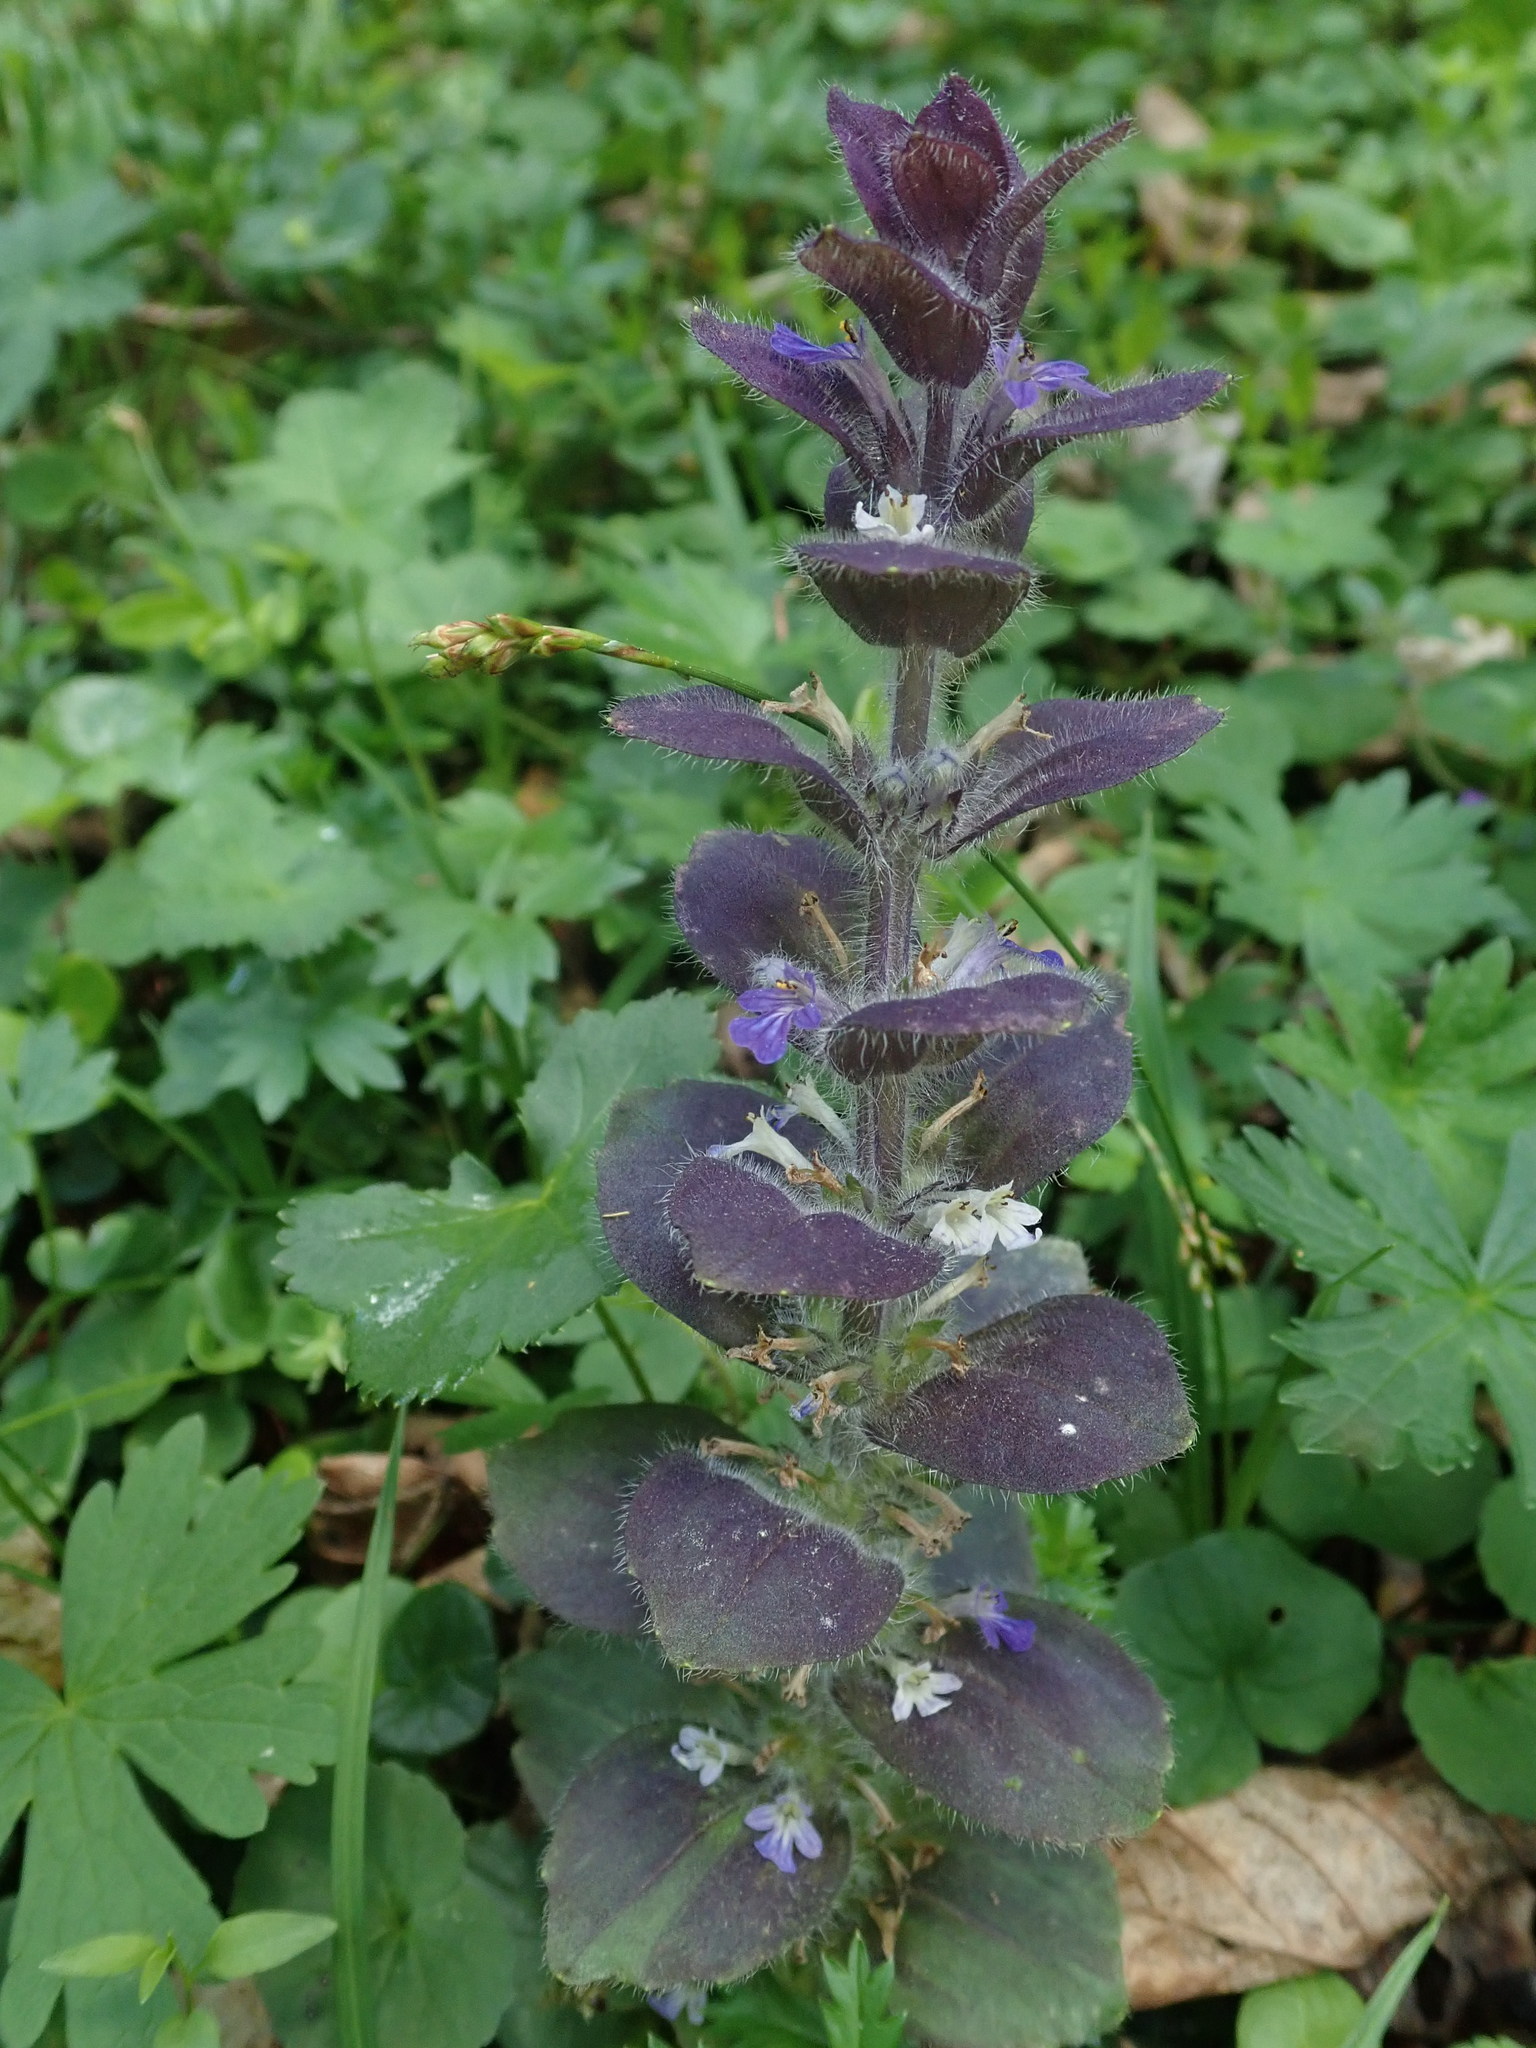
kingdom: Plantae
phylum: Tracheophyta
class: Magnoliopsida
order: Lamiales
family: Lamiaceae
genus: Ajuga
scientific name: Ajuga reptans
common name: Bugle
